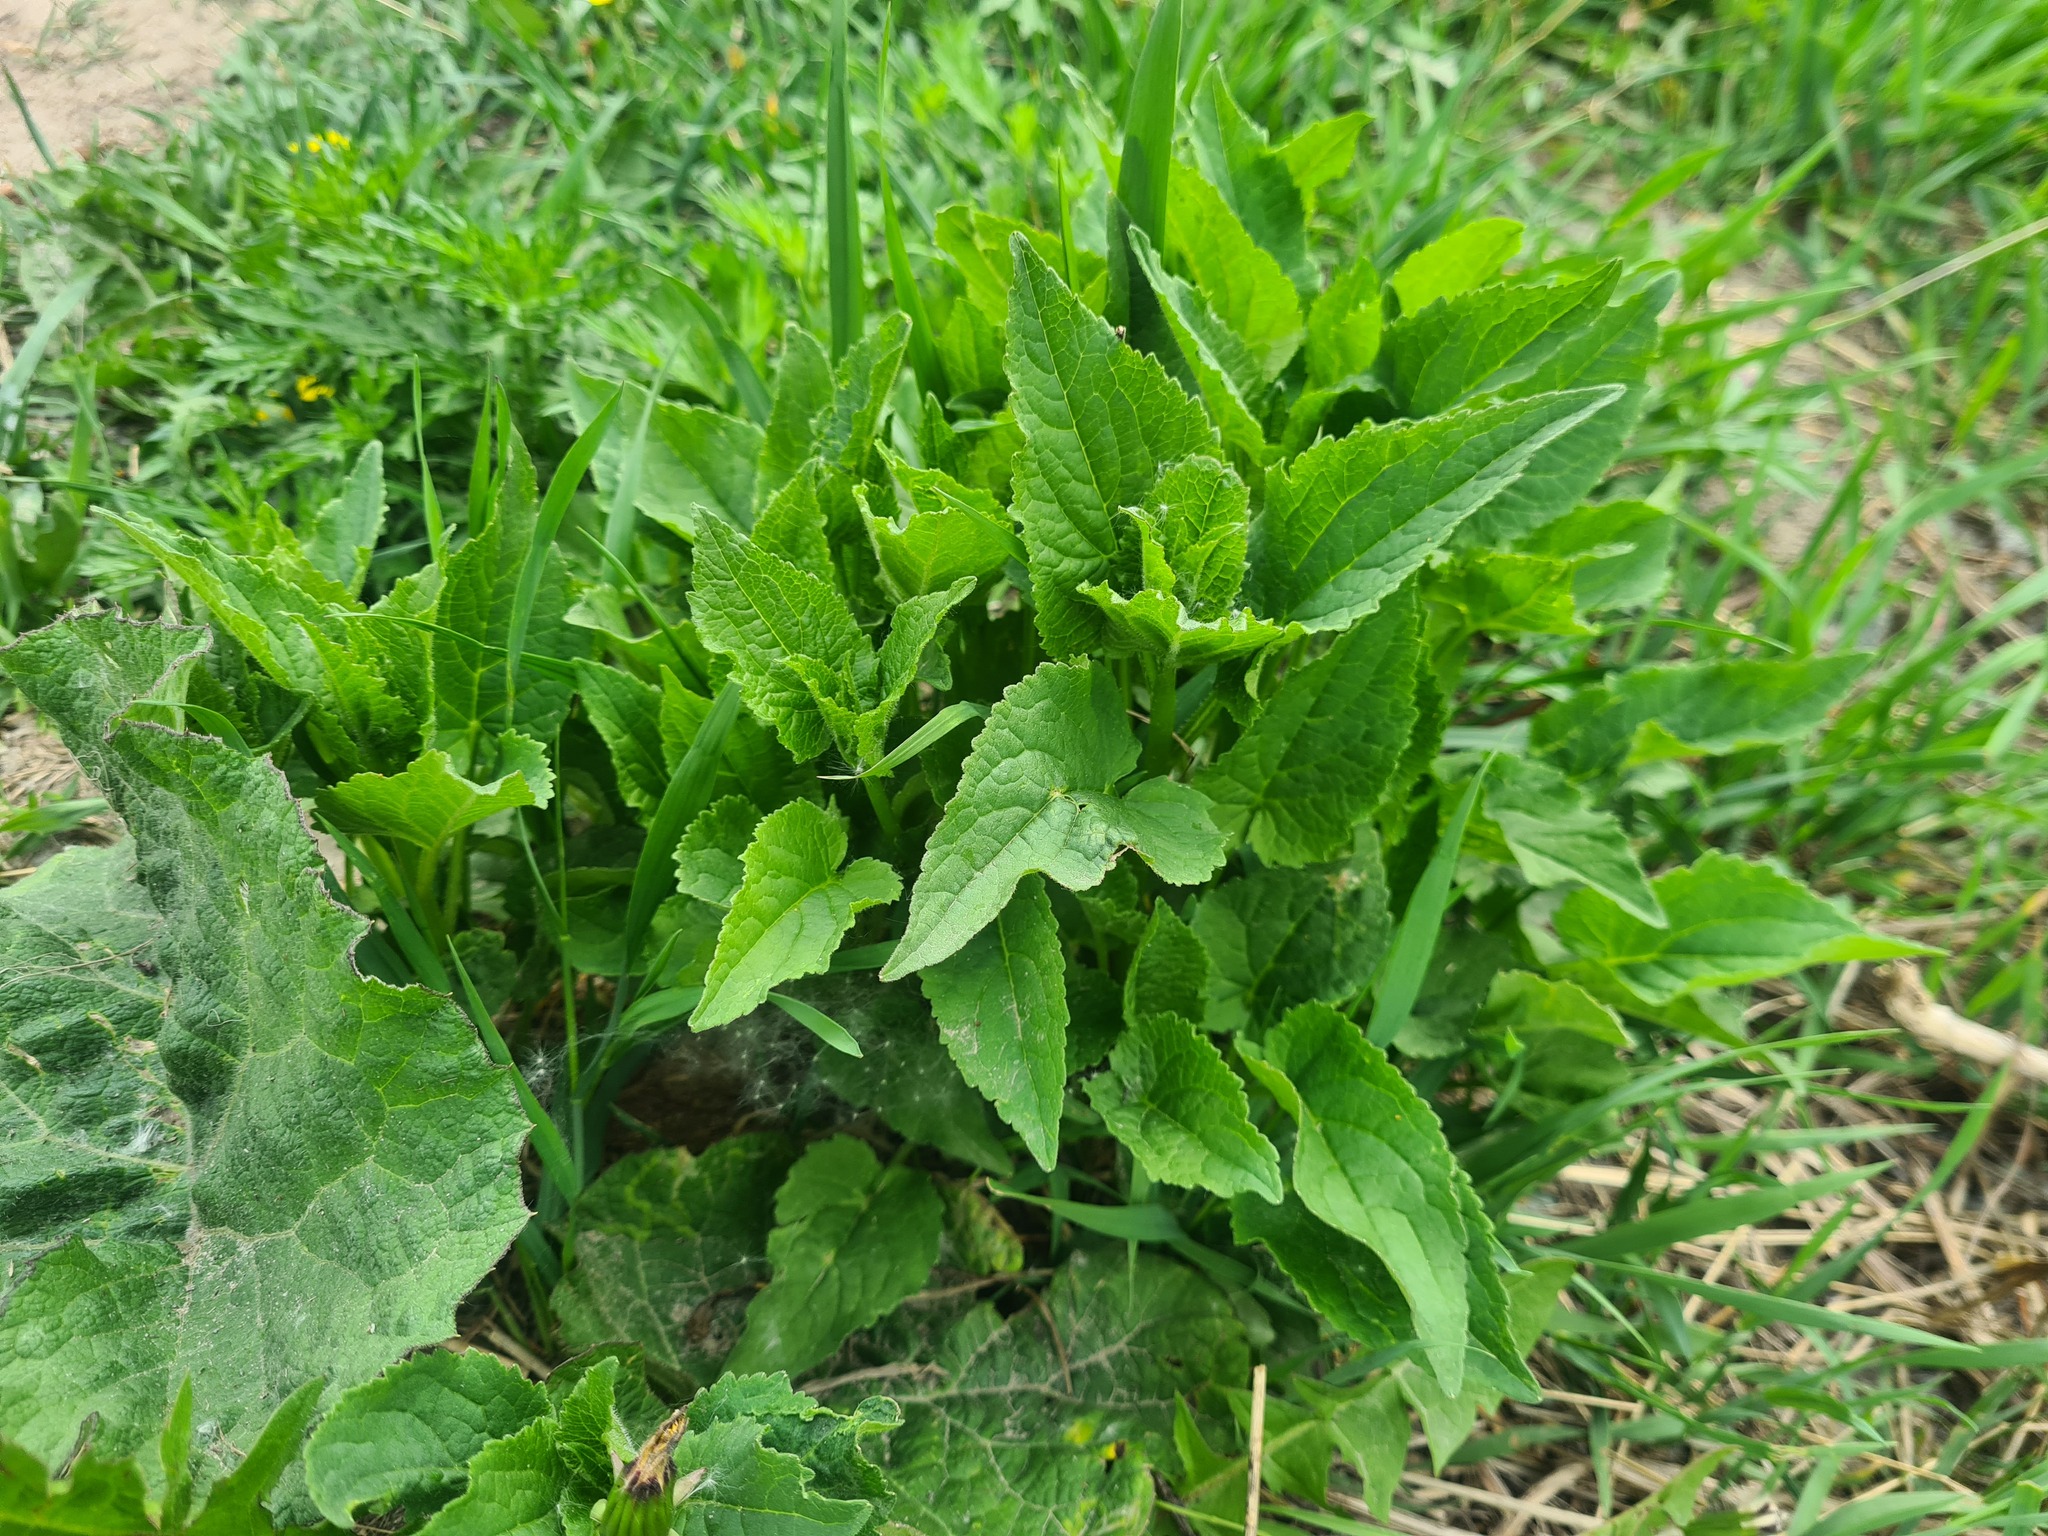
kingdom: Plantae
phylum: Tracheophyta
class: Magnoliopsida
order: Asterales
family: Campanulaceae
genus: Campanula
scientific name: Campanula rapunculoides
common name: Creeping bellflower
